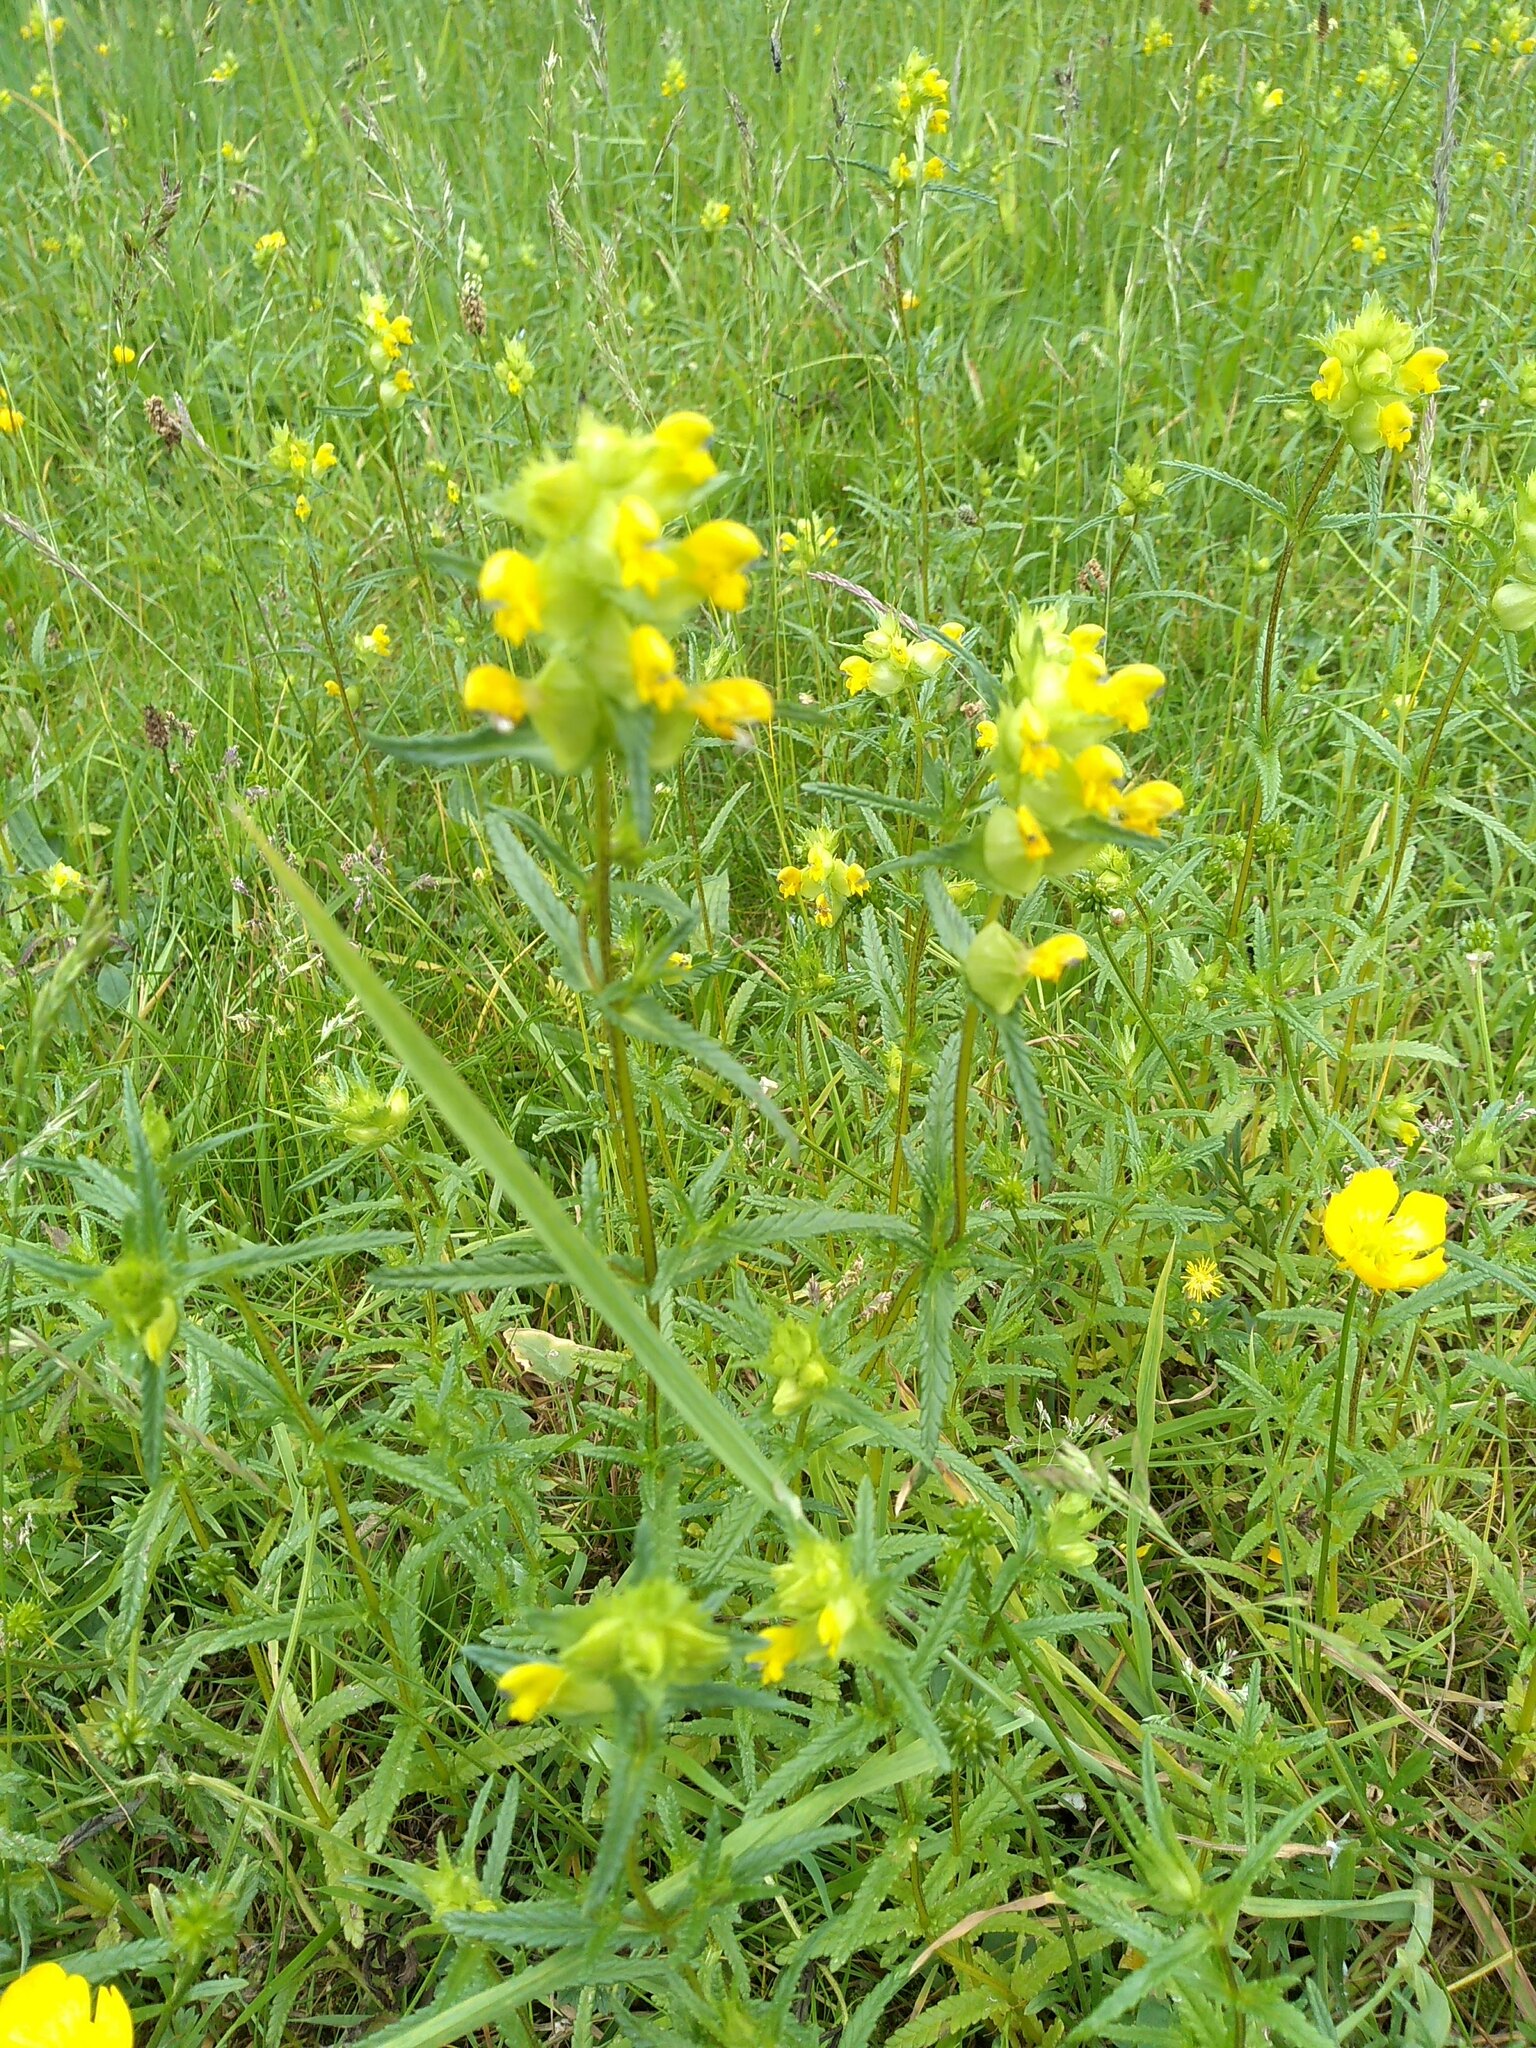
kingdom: Plantae
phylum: Tracheophyta
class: Magnoliopsida
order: Lamiales
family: Orobanchaceae
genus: Rhinanthus
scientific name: Rhinanthus minor
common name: Yellow-rattle
